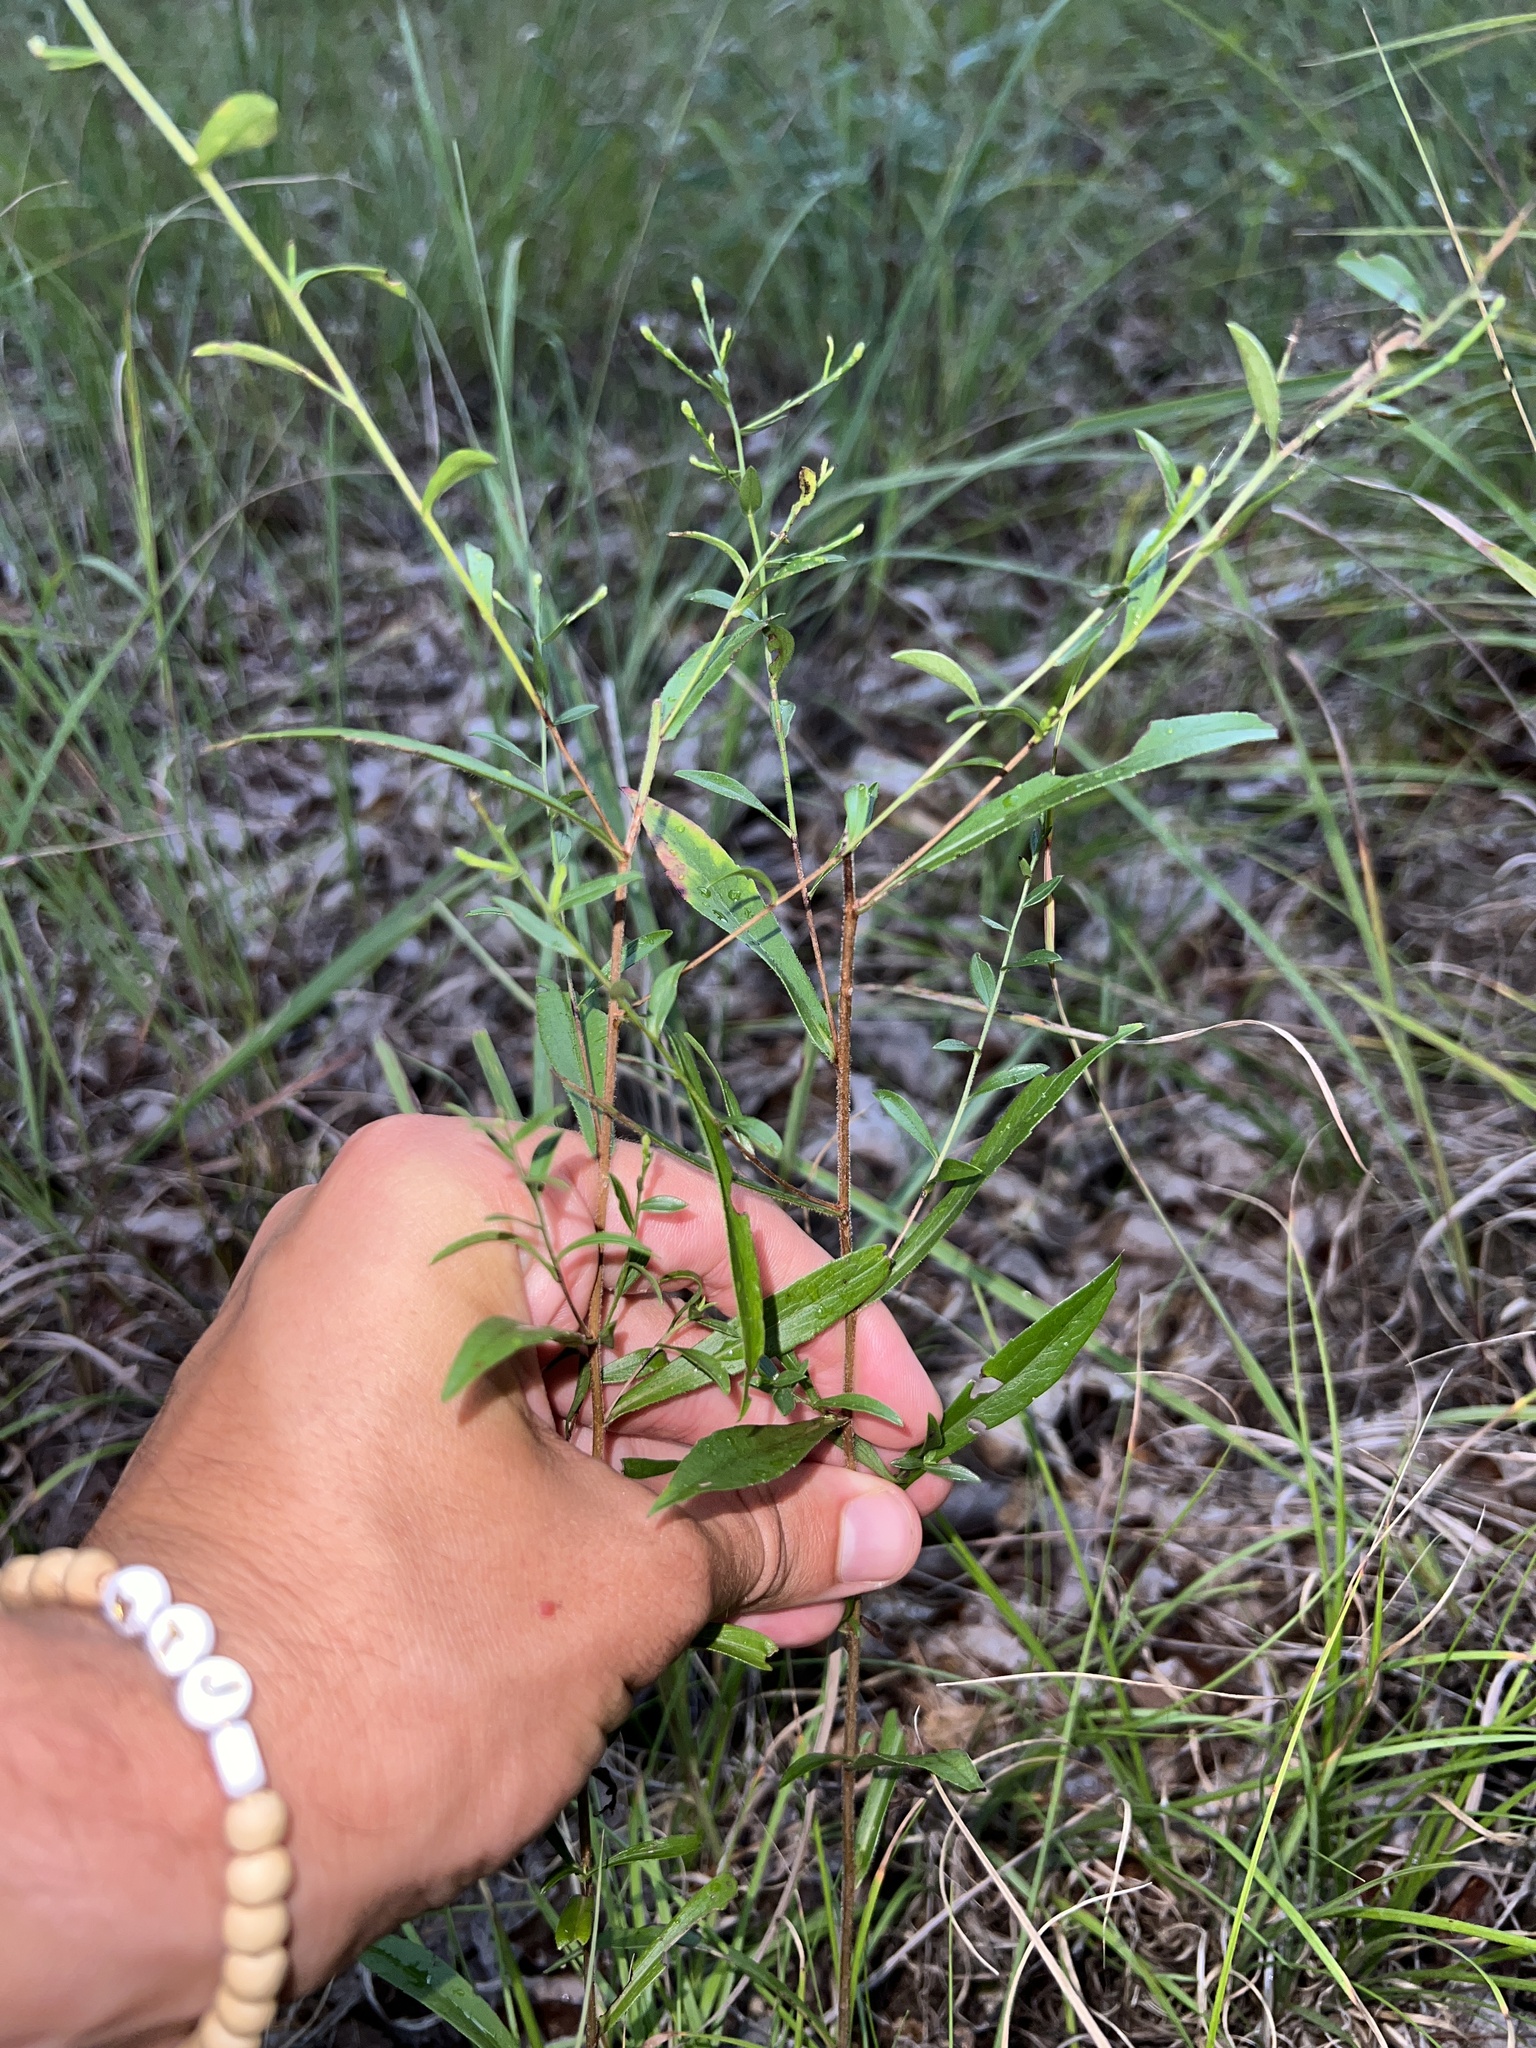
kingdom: Plantae
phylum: Tracheophyta
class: Magnoliopsida
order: Asterales
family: Asteraceae
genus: Symphyotrichum
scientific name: Symphyotrichum turbinellum
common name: Prairie aster
